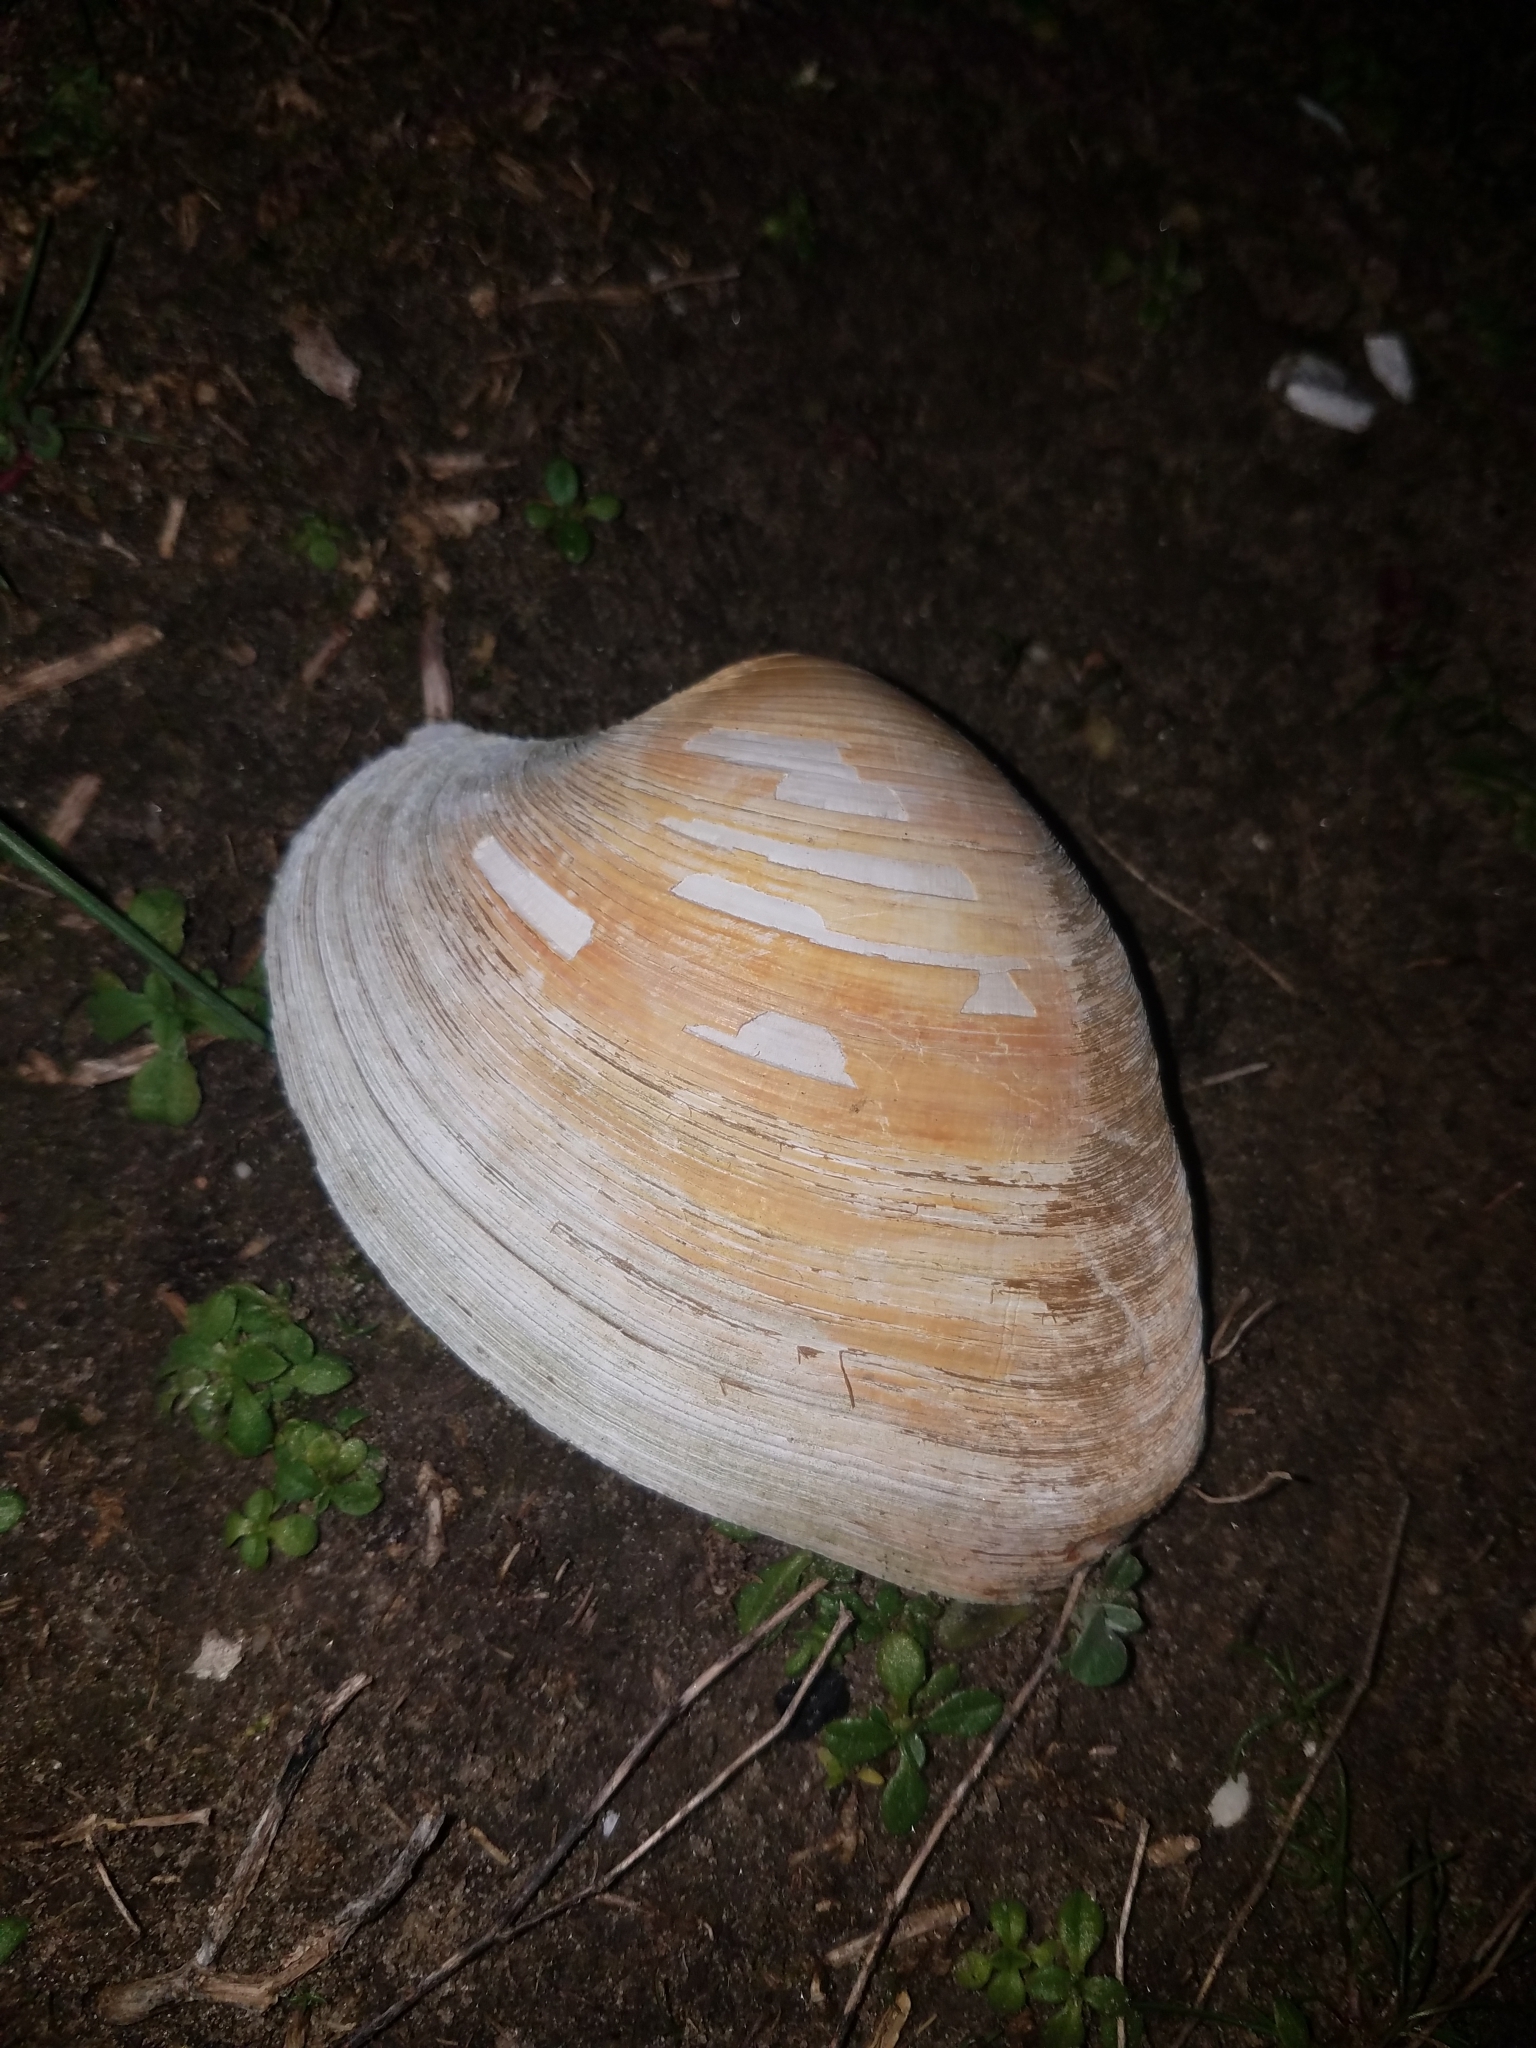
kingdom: Animalia
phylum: Mollusca
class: Bivalvia
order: Venerida
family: Veneridae
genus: Mercenaria
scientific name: Mercenaria mercenaria
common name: American hard-shelled clam
